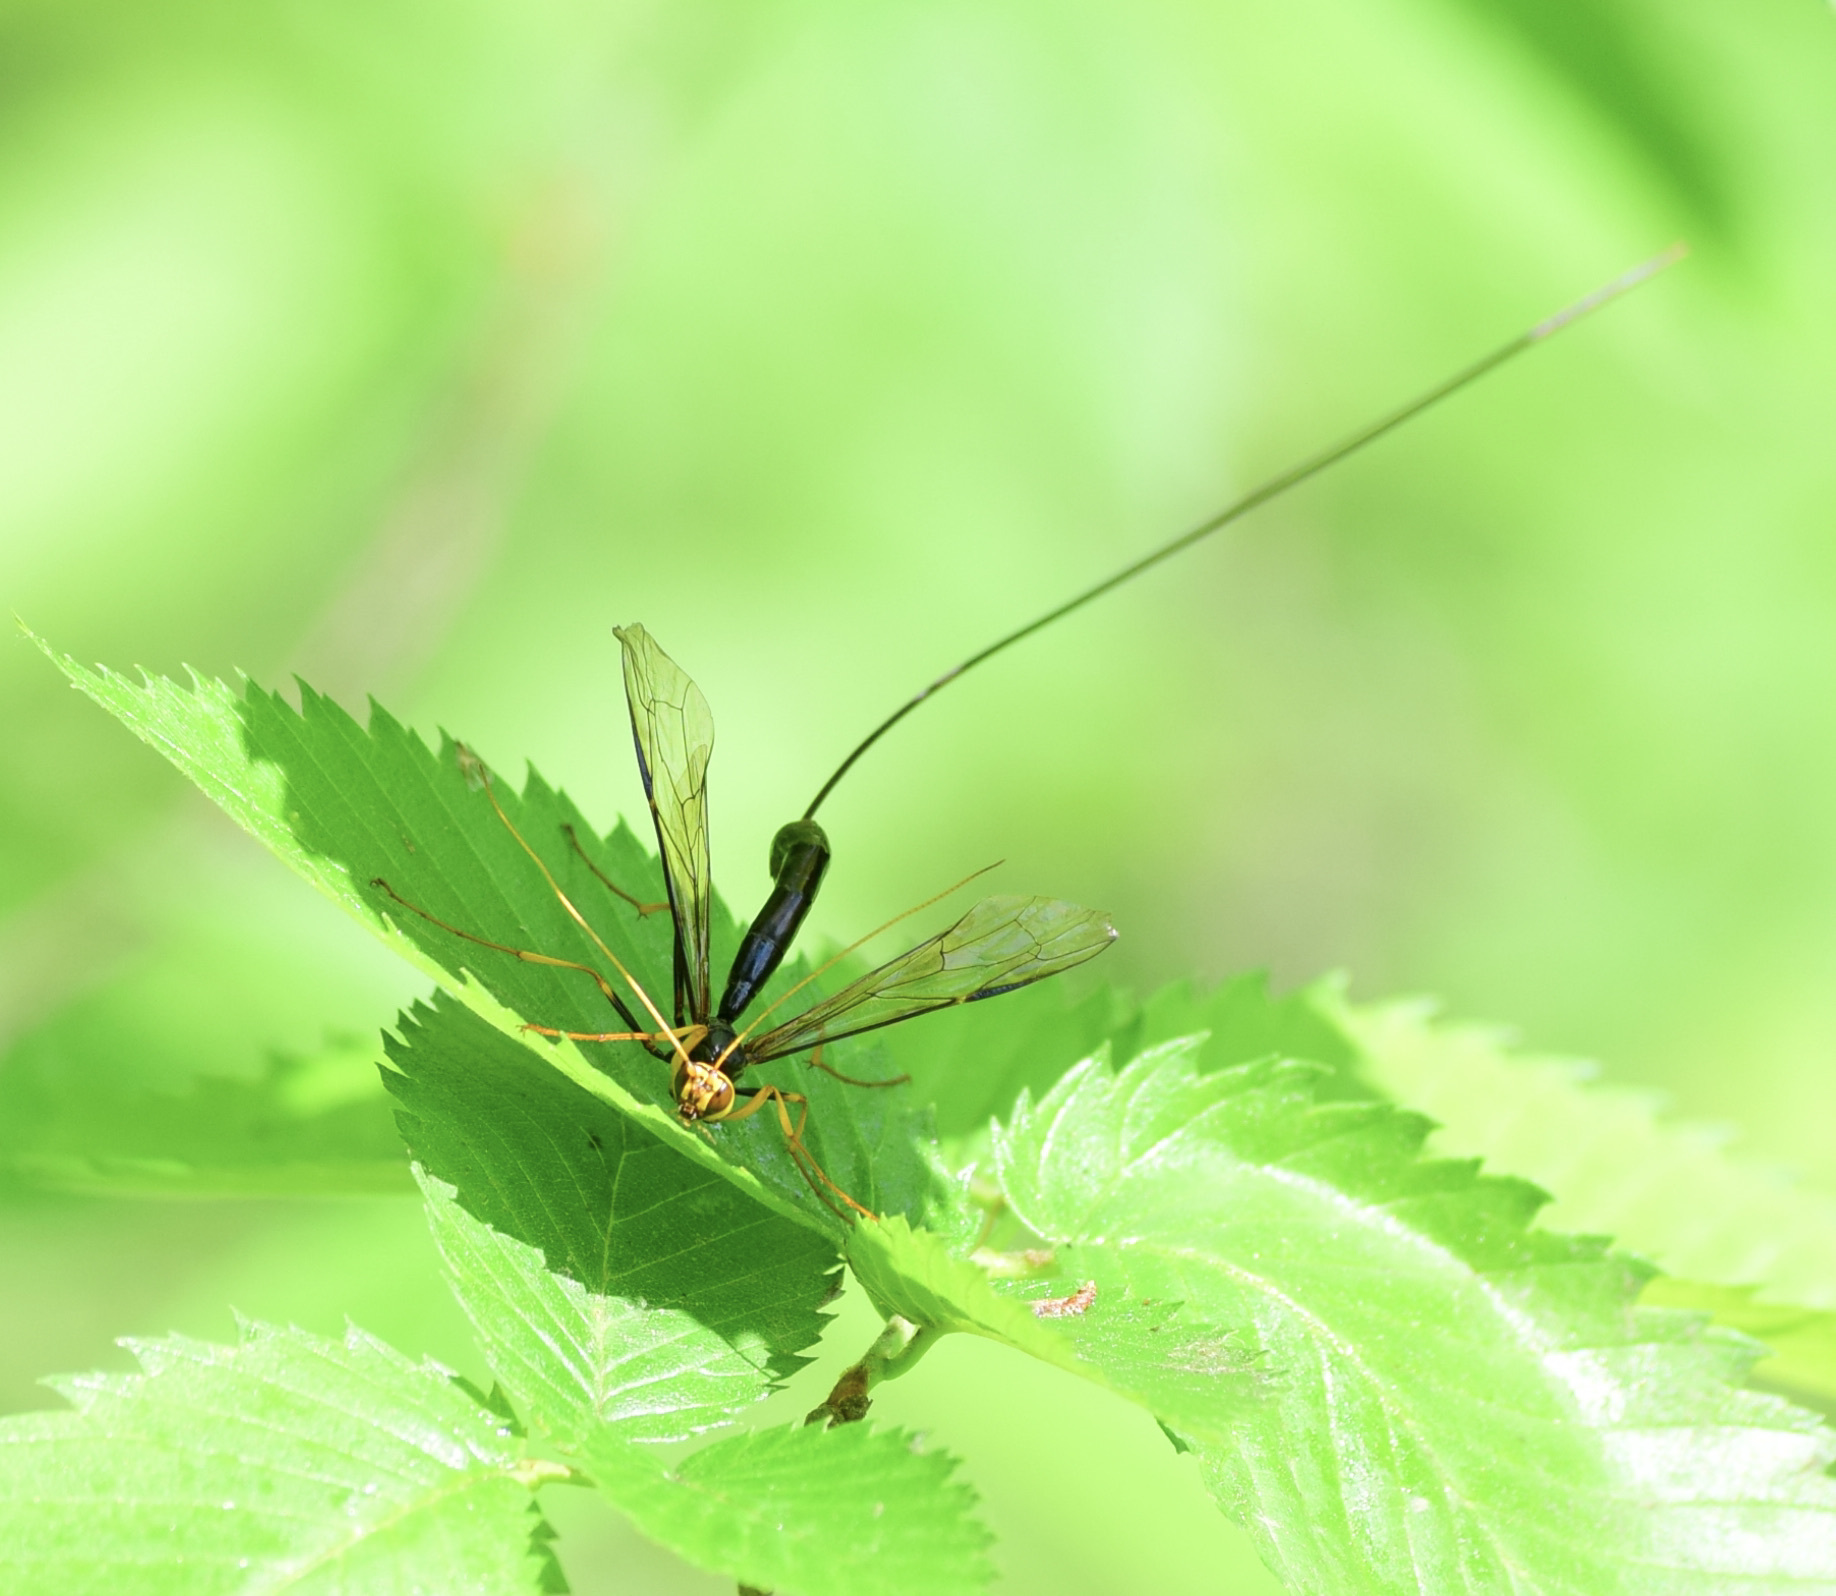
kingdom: Animalia
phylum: Arthropoda
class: Insecta
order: Hymenoptera
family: Ichneumonidae
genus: Megarhyssa
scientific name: Megarhyssa atrata
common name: Black giant ichneumonid wasp
